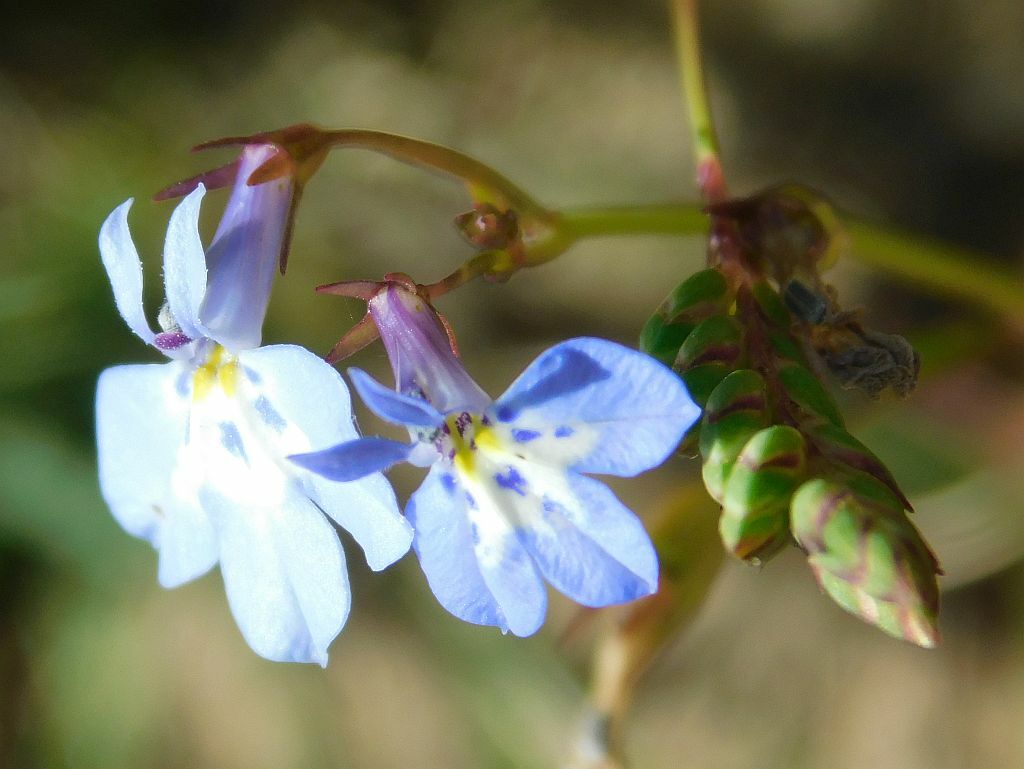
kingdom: Plantae
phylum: Tracheophyta
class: Magnoliopsida
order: Asterales
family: Campanulaceae
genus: Lobelia
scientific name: Lobelia erinus
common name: Edging lobelia
